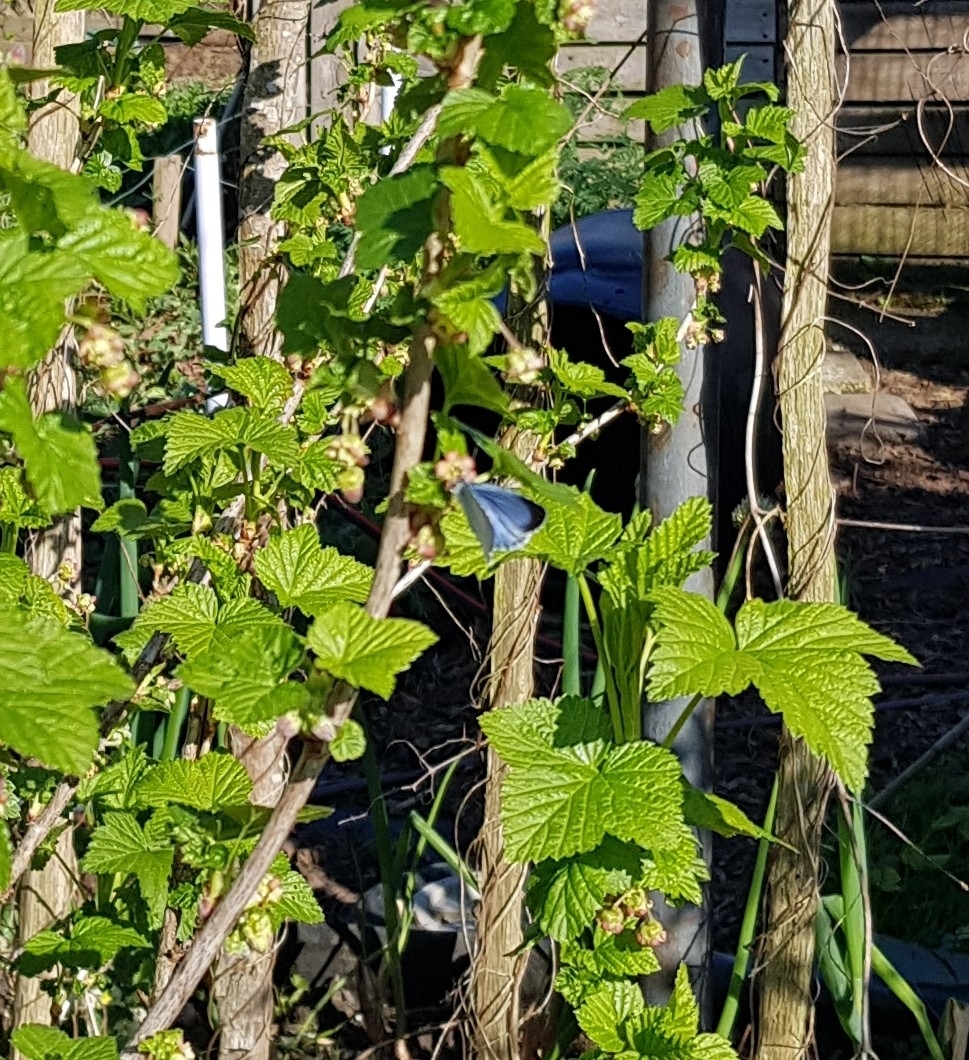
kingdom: Animalia
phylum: Arthropoda
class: Insecta
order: Lepidoptera
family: Lycaenidae
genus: Celastrina
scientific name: Celastrina argiolus
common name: Holly blue
